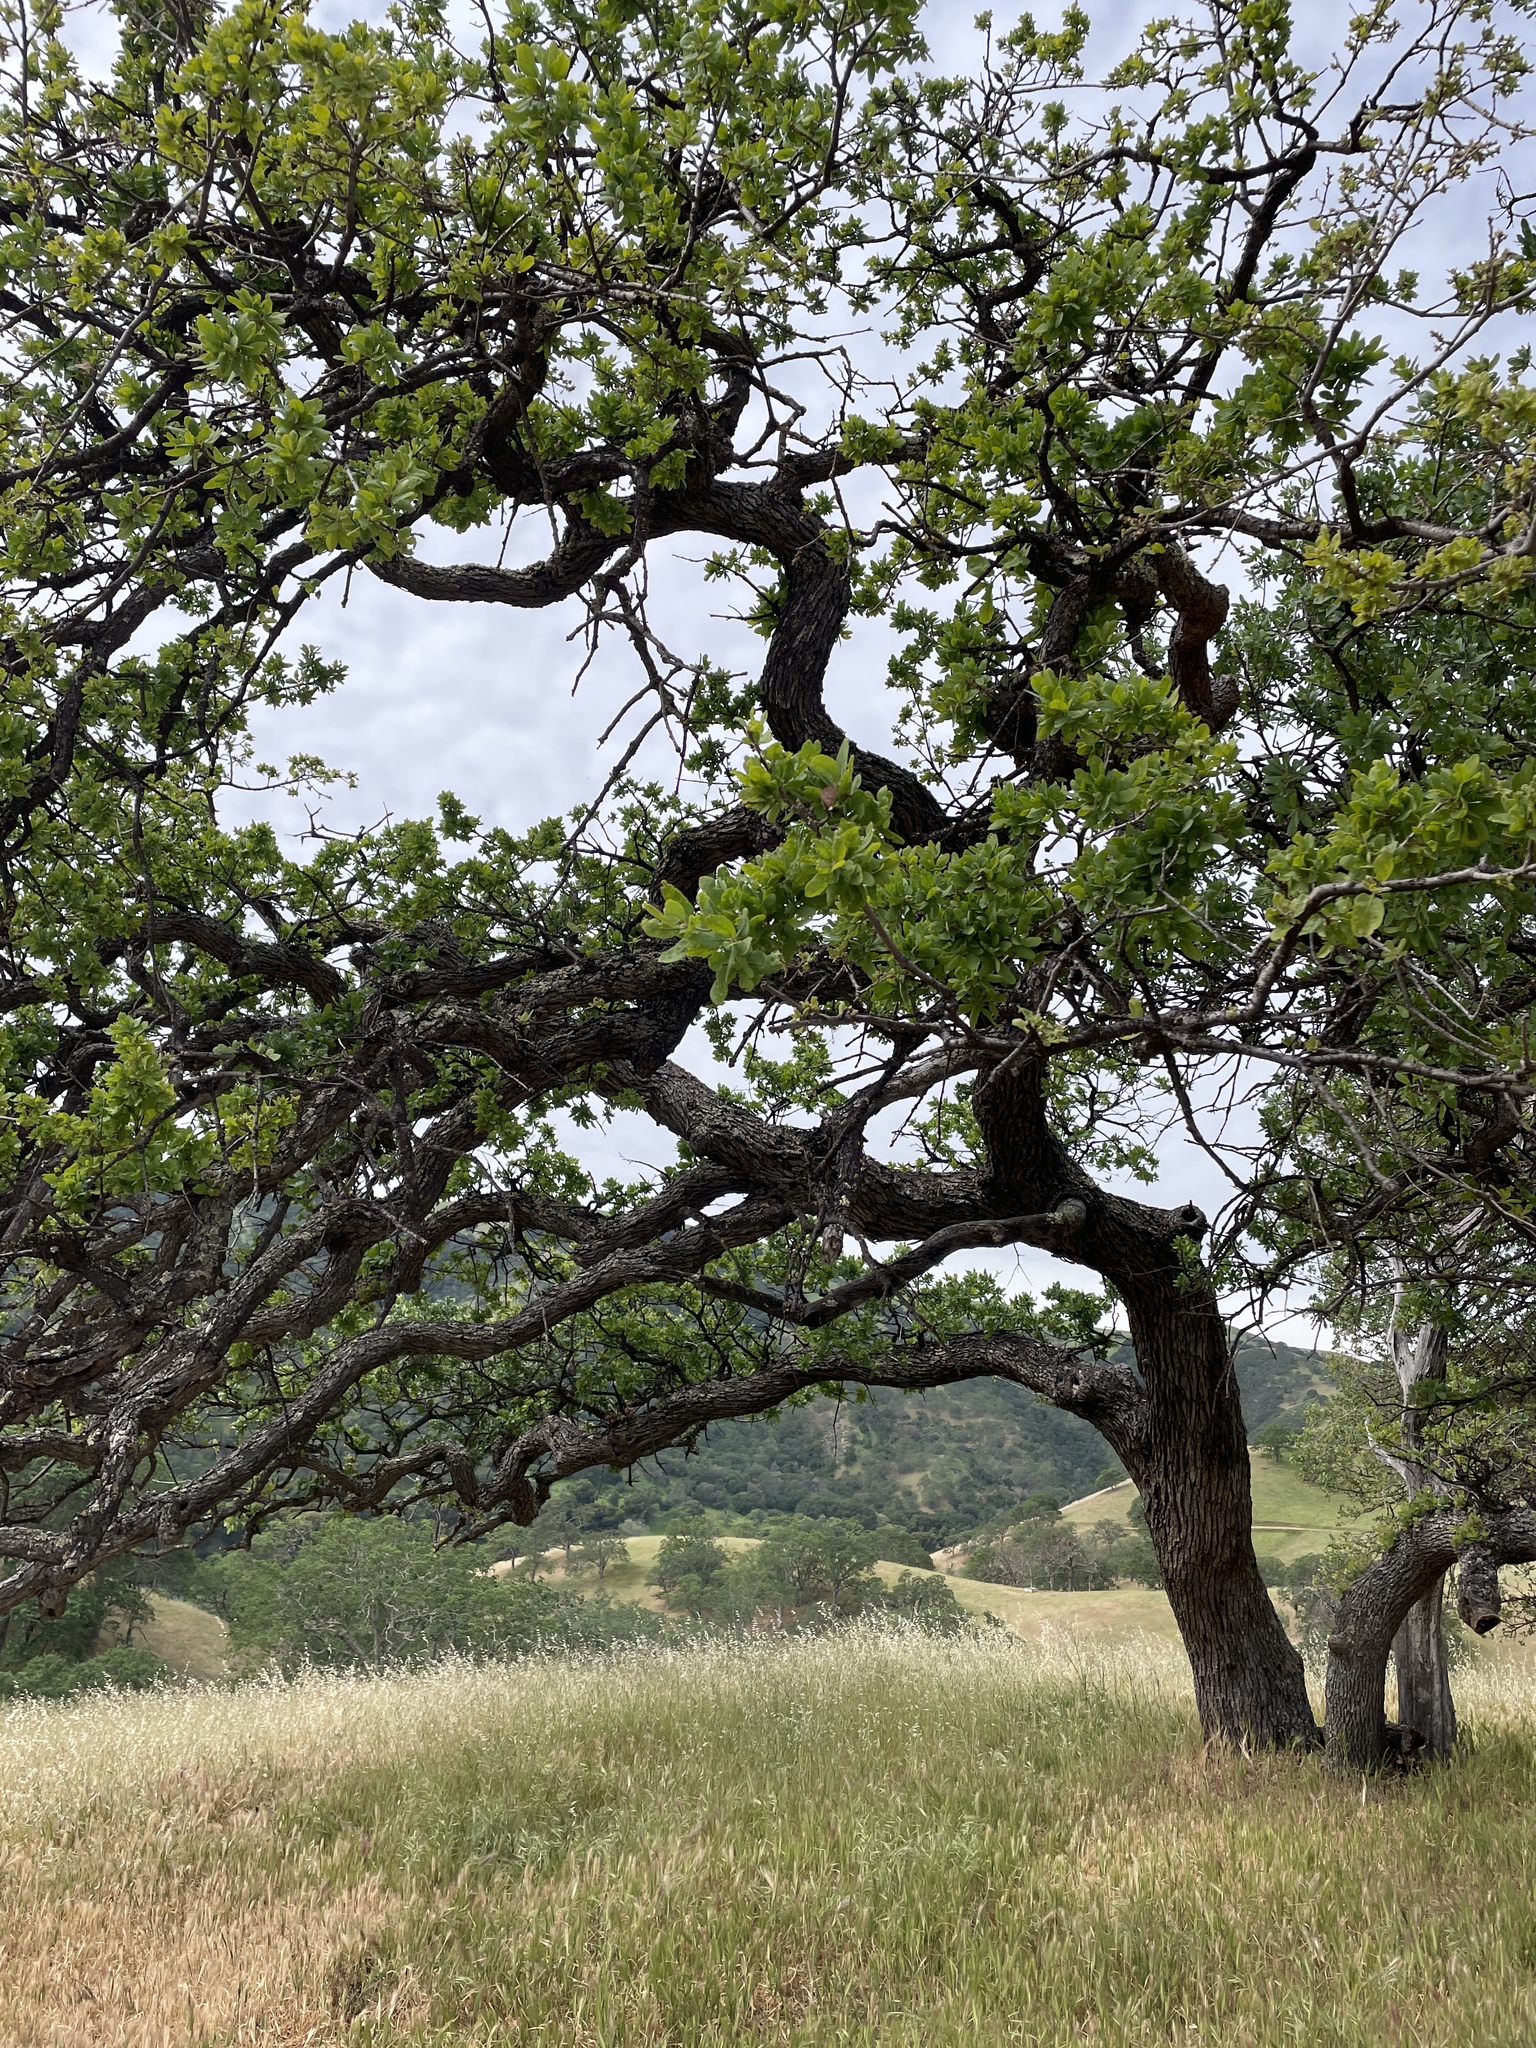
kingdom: Plantae
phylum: Tracheophyta
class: Magnoliopsida
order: Fagales
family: Fagaceae
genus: Quercus
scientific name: Quercus douglasii
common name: Blue oak
